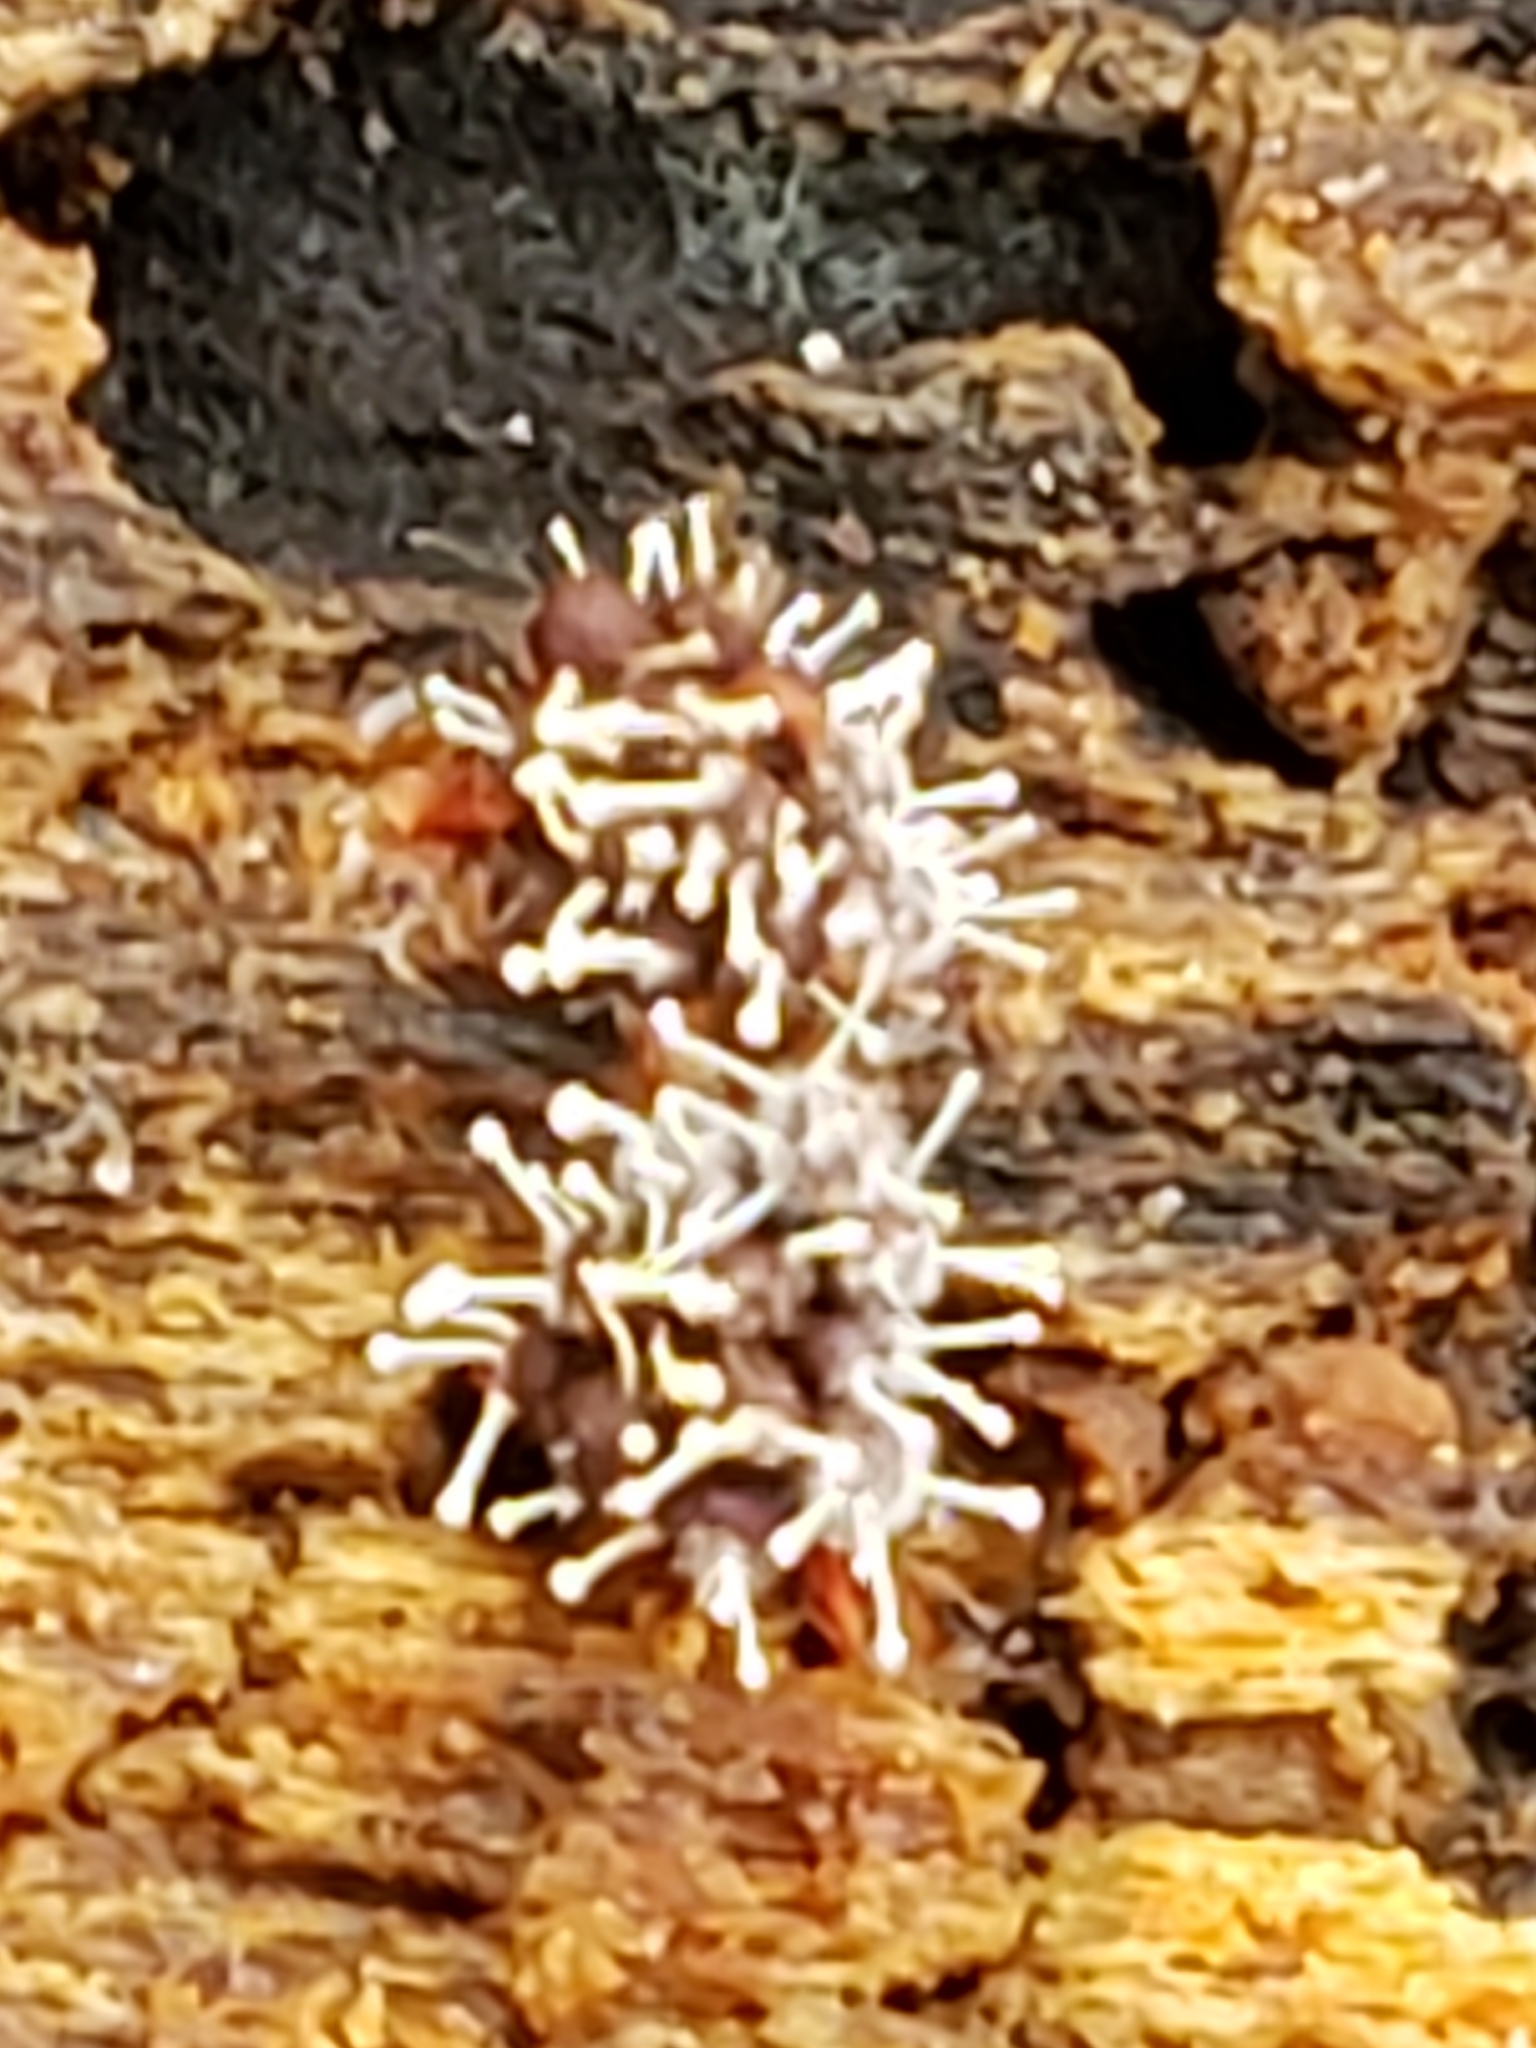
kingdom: Fungi
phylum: Ascomycota
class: Sordariomycetes
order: Hypocreales
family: Ophiocordycipitaceae
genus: Polycephalomyces
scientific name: Polycephalomyces tomentosus
